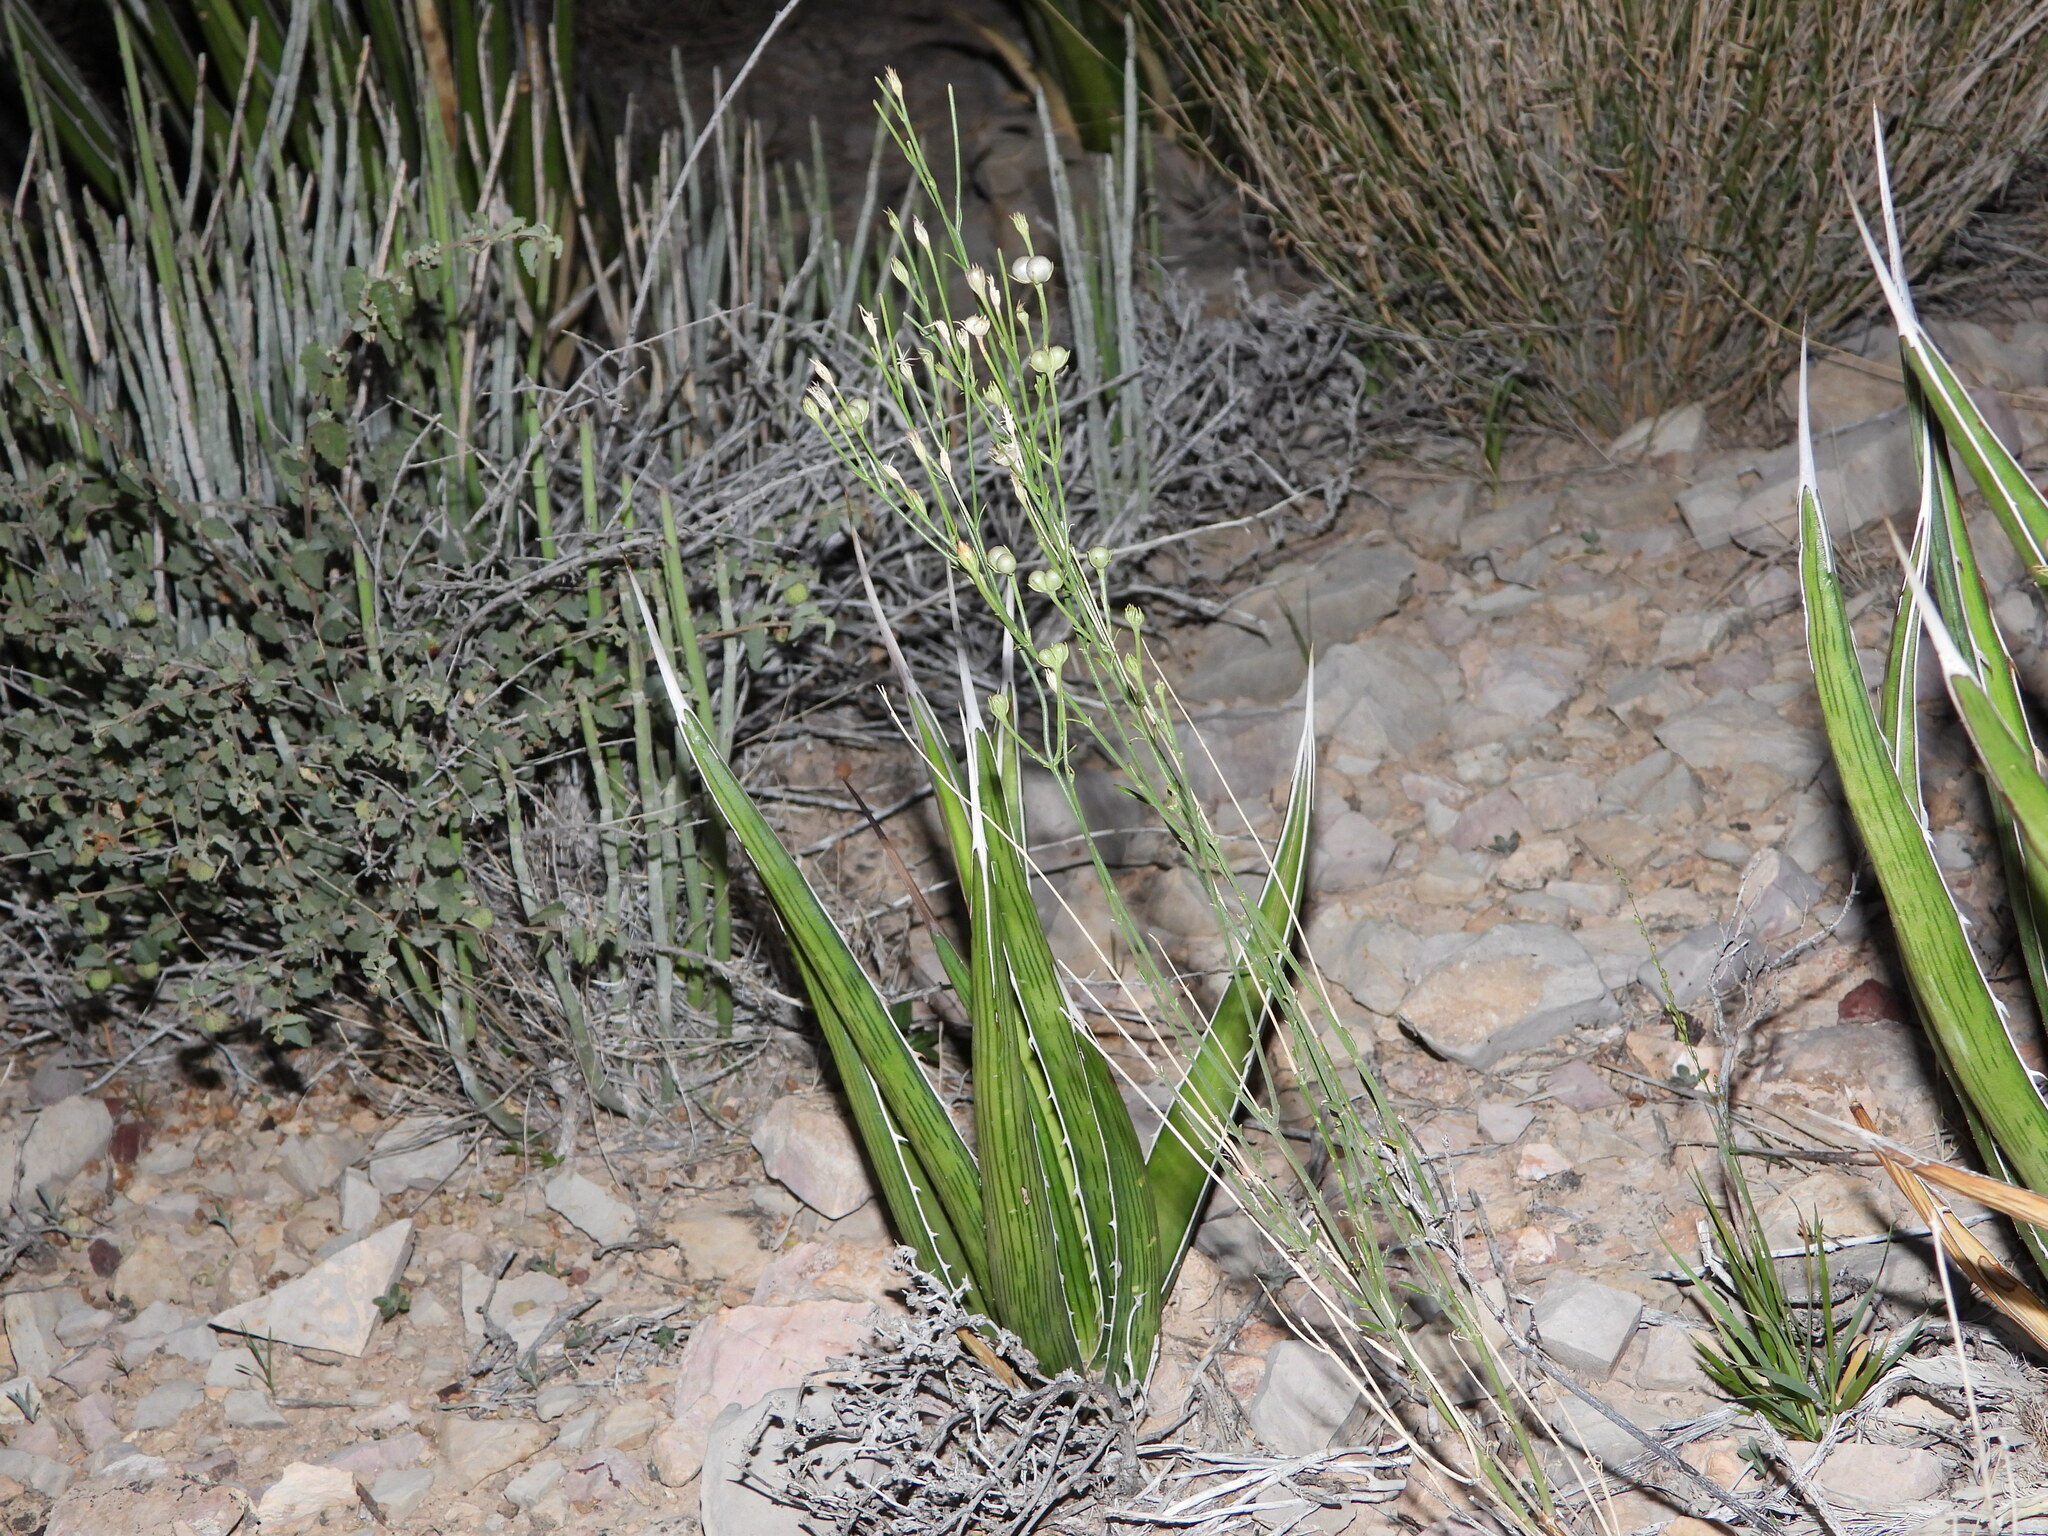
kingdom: Plantae
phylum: Tracheophyta
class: Liliopsida
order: Asparagales
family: Asparagaceae
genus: Agave
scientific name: Agave lechuguilla
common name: Lecheguilla agave
